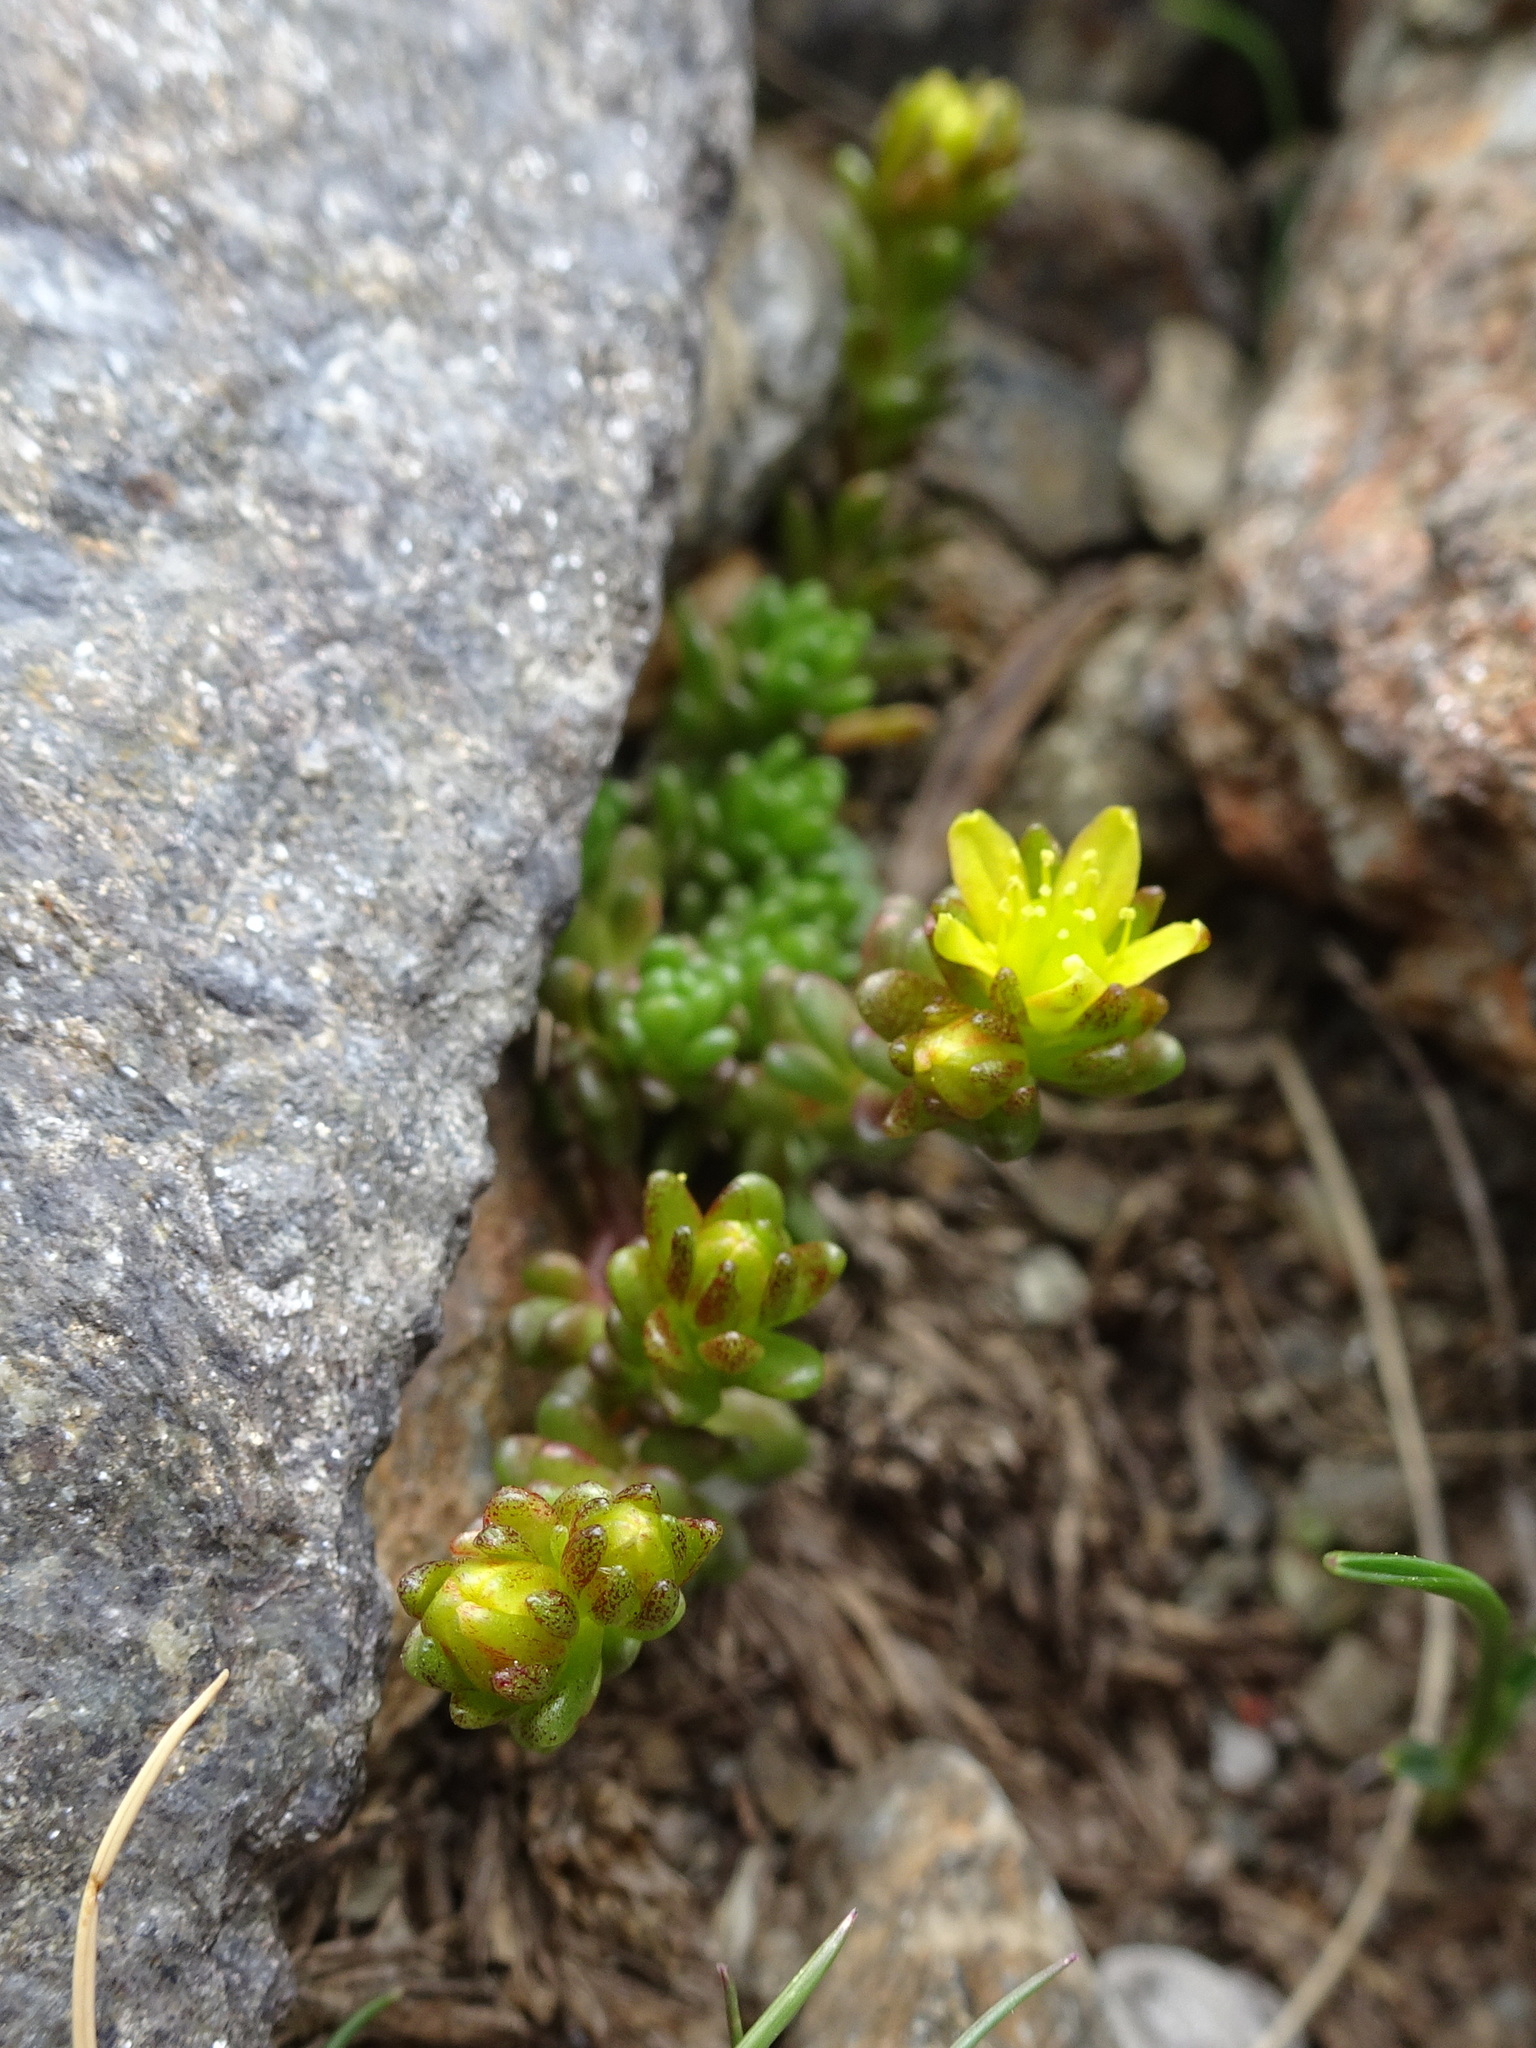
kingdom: Plantae
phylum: Tracheophyta
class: Magnoliopsida
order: Saxifragales
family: Crassulaceae
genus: Sedum
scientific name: Sedum alpestre
